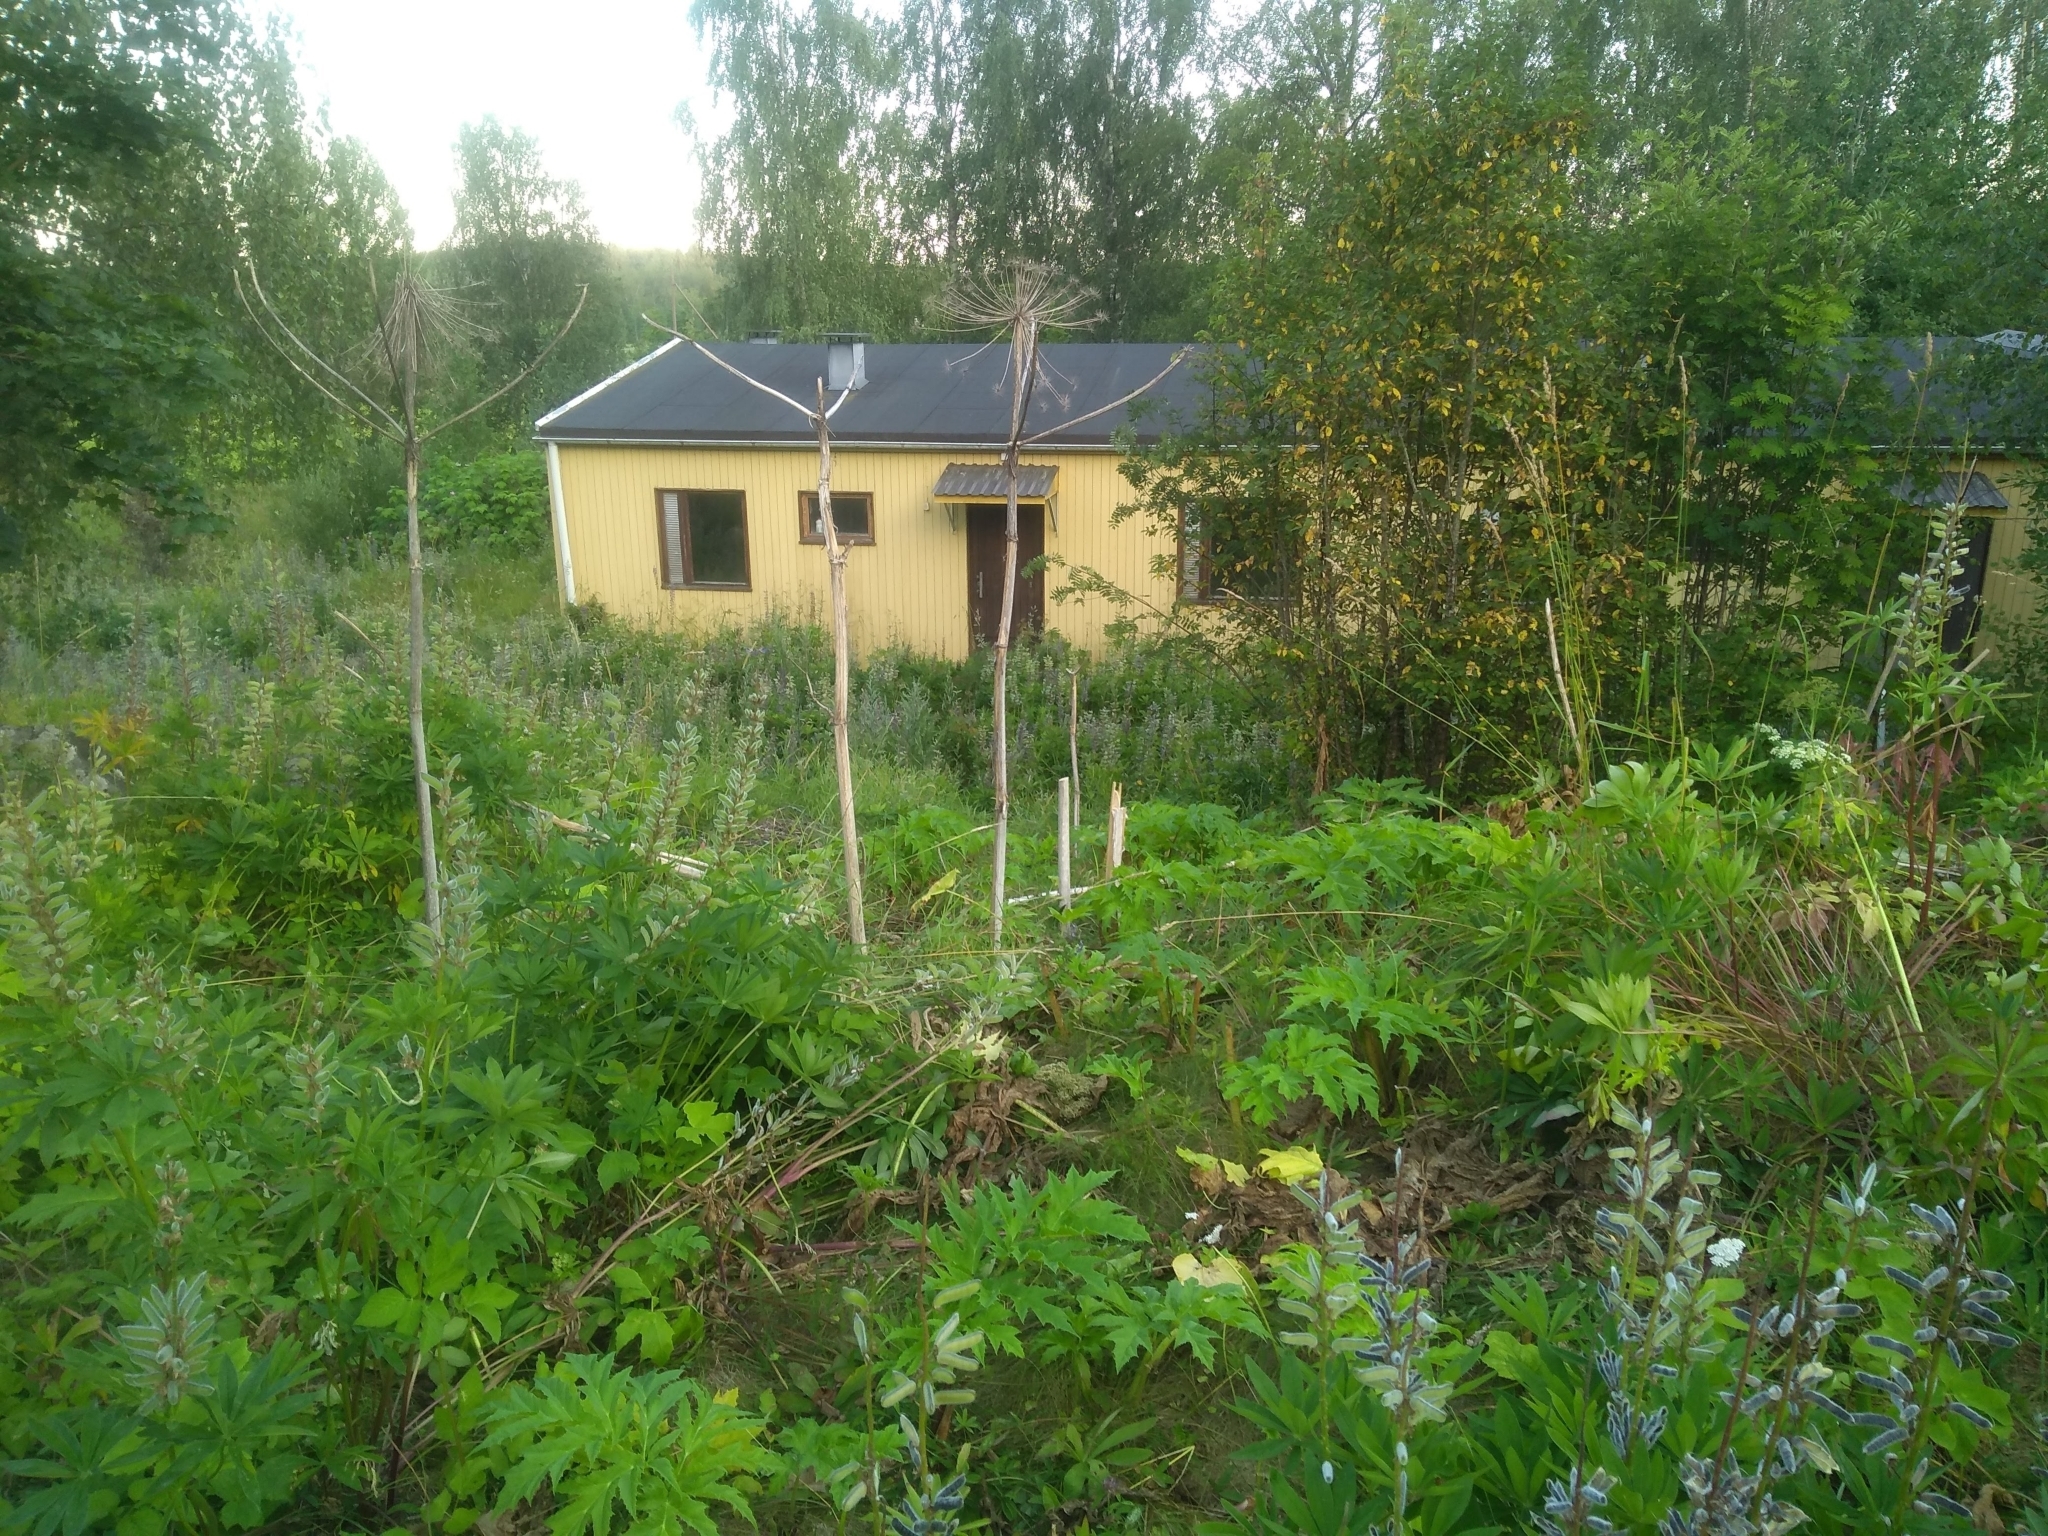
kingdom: Plantae
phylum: Tracheophyta
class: Magnoliopsida
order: Apiales
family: Apiaceae
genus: Heracleum
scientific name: Heracleum mantegazzianum
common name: Giant hogweed
